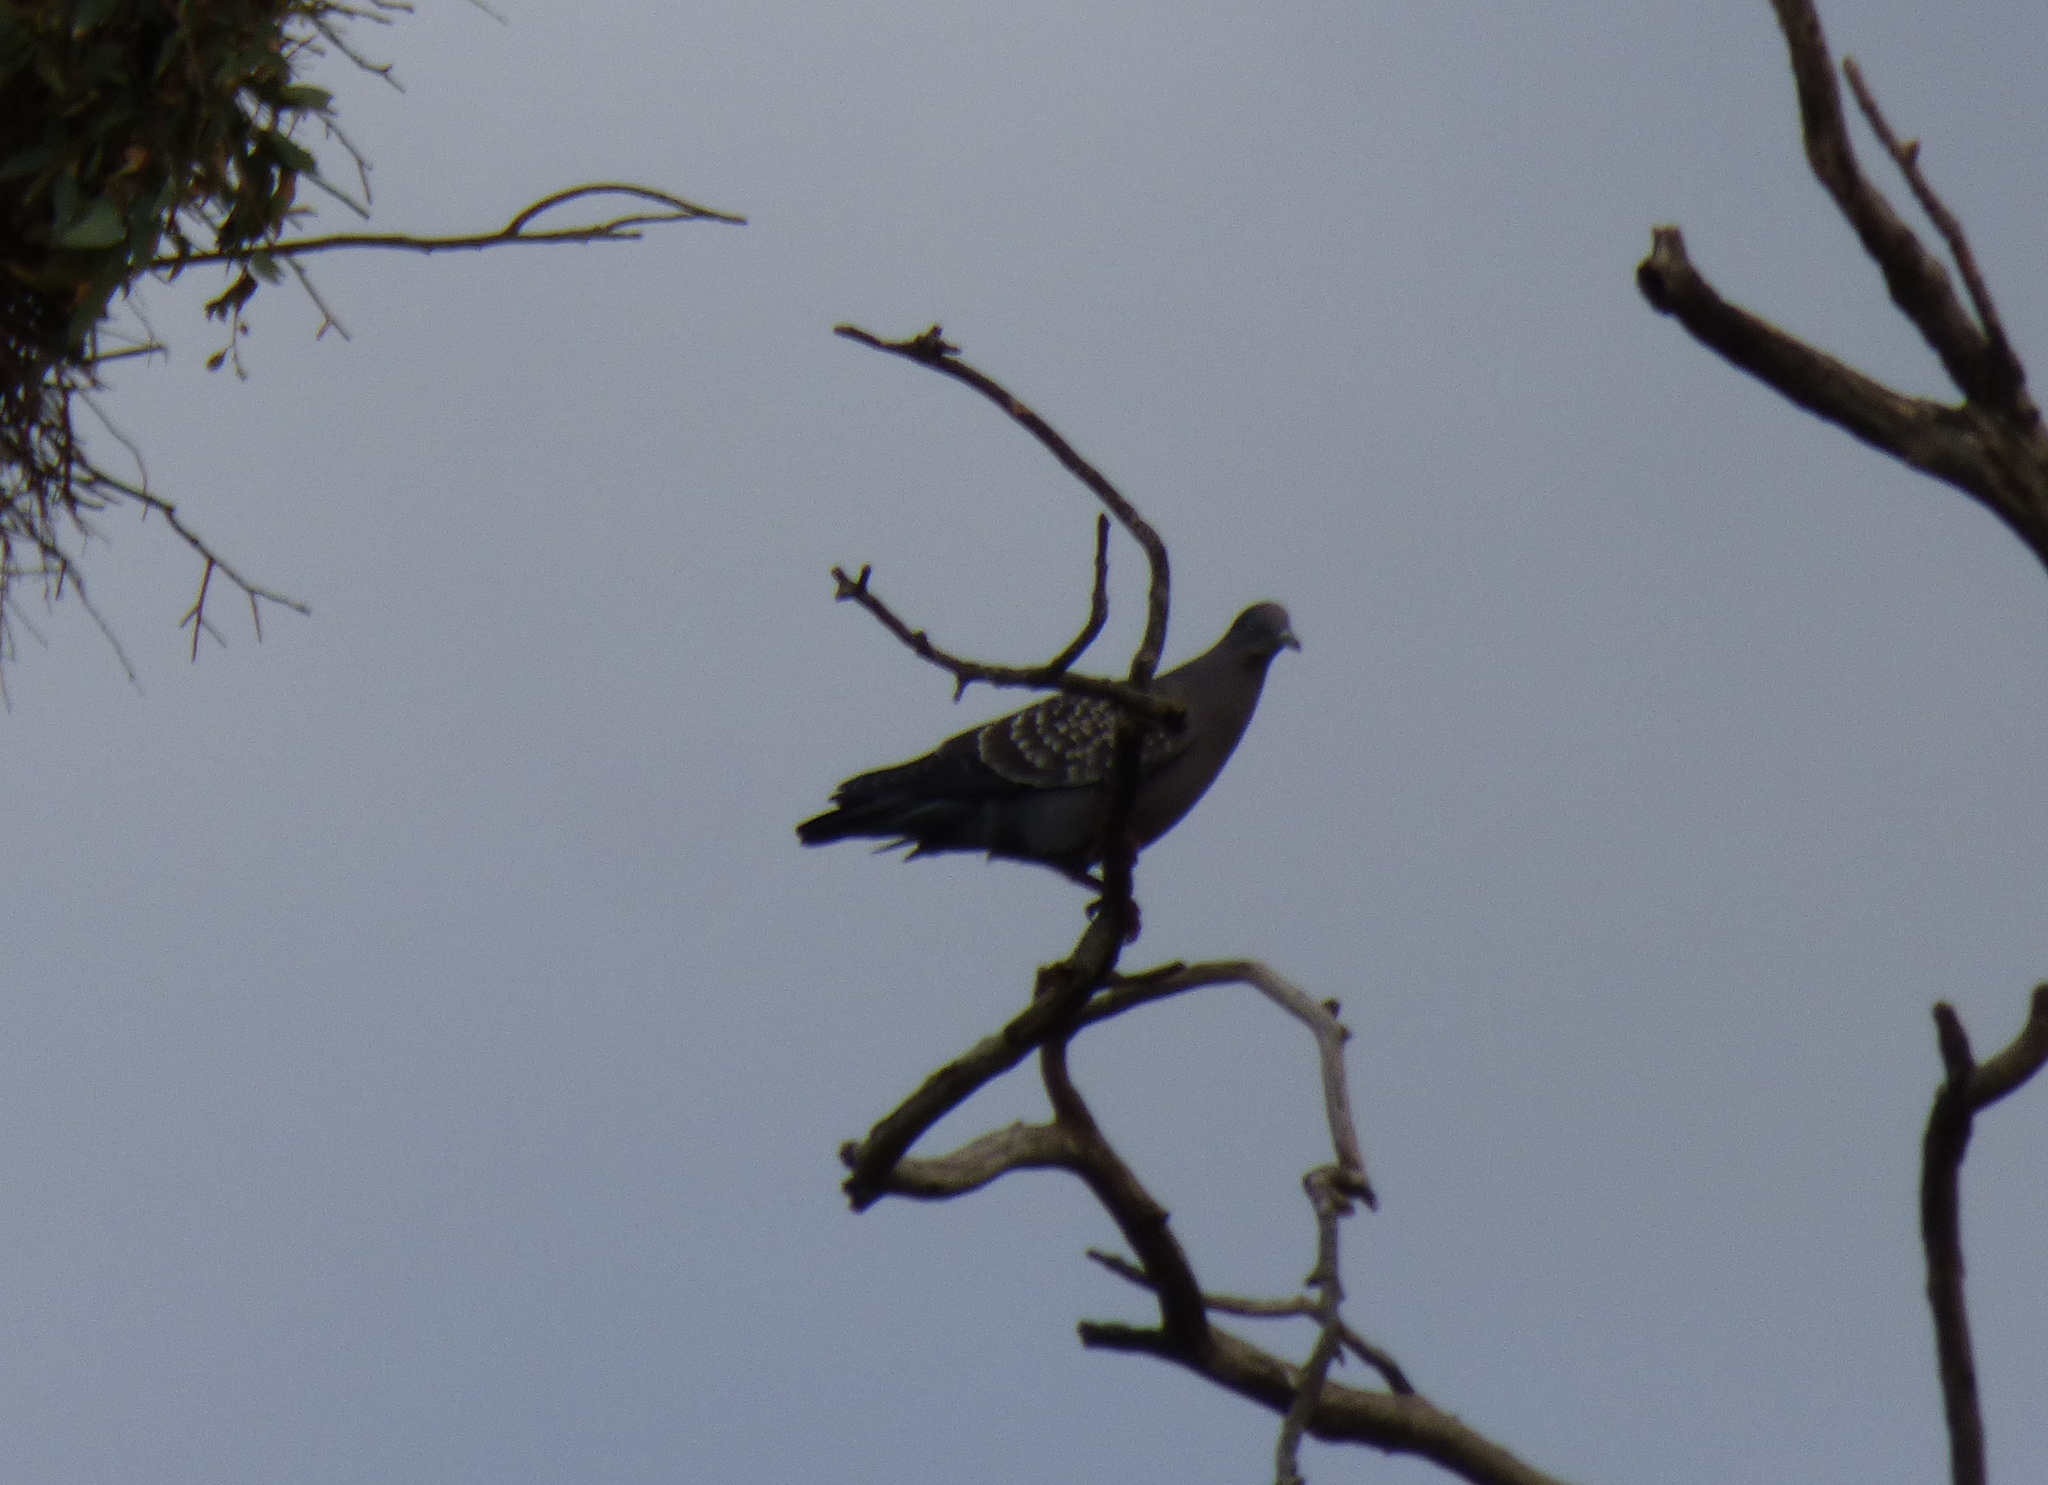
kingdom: Animalia
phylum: Chordata
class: Aves
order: Columbiformes
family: Columbidae
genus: Patagioenas
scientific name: Patagioenas maculosa
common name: Spot-winged pigeon
